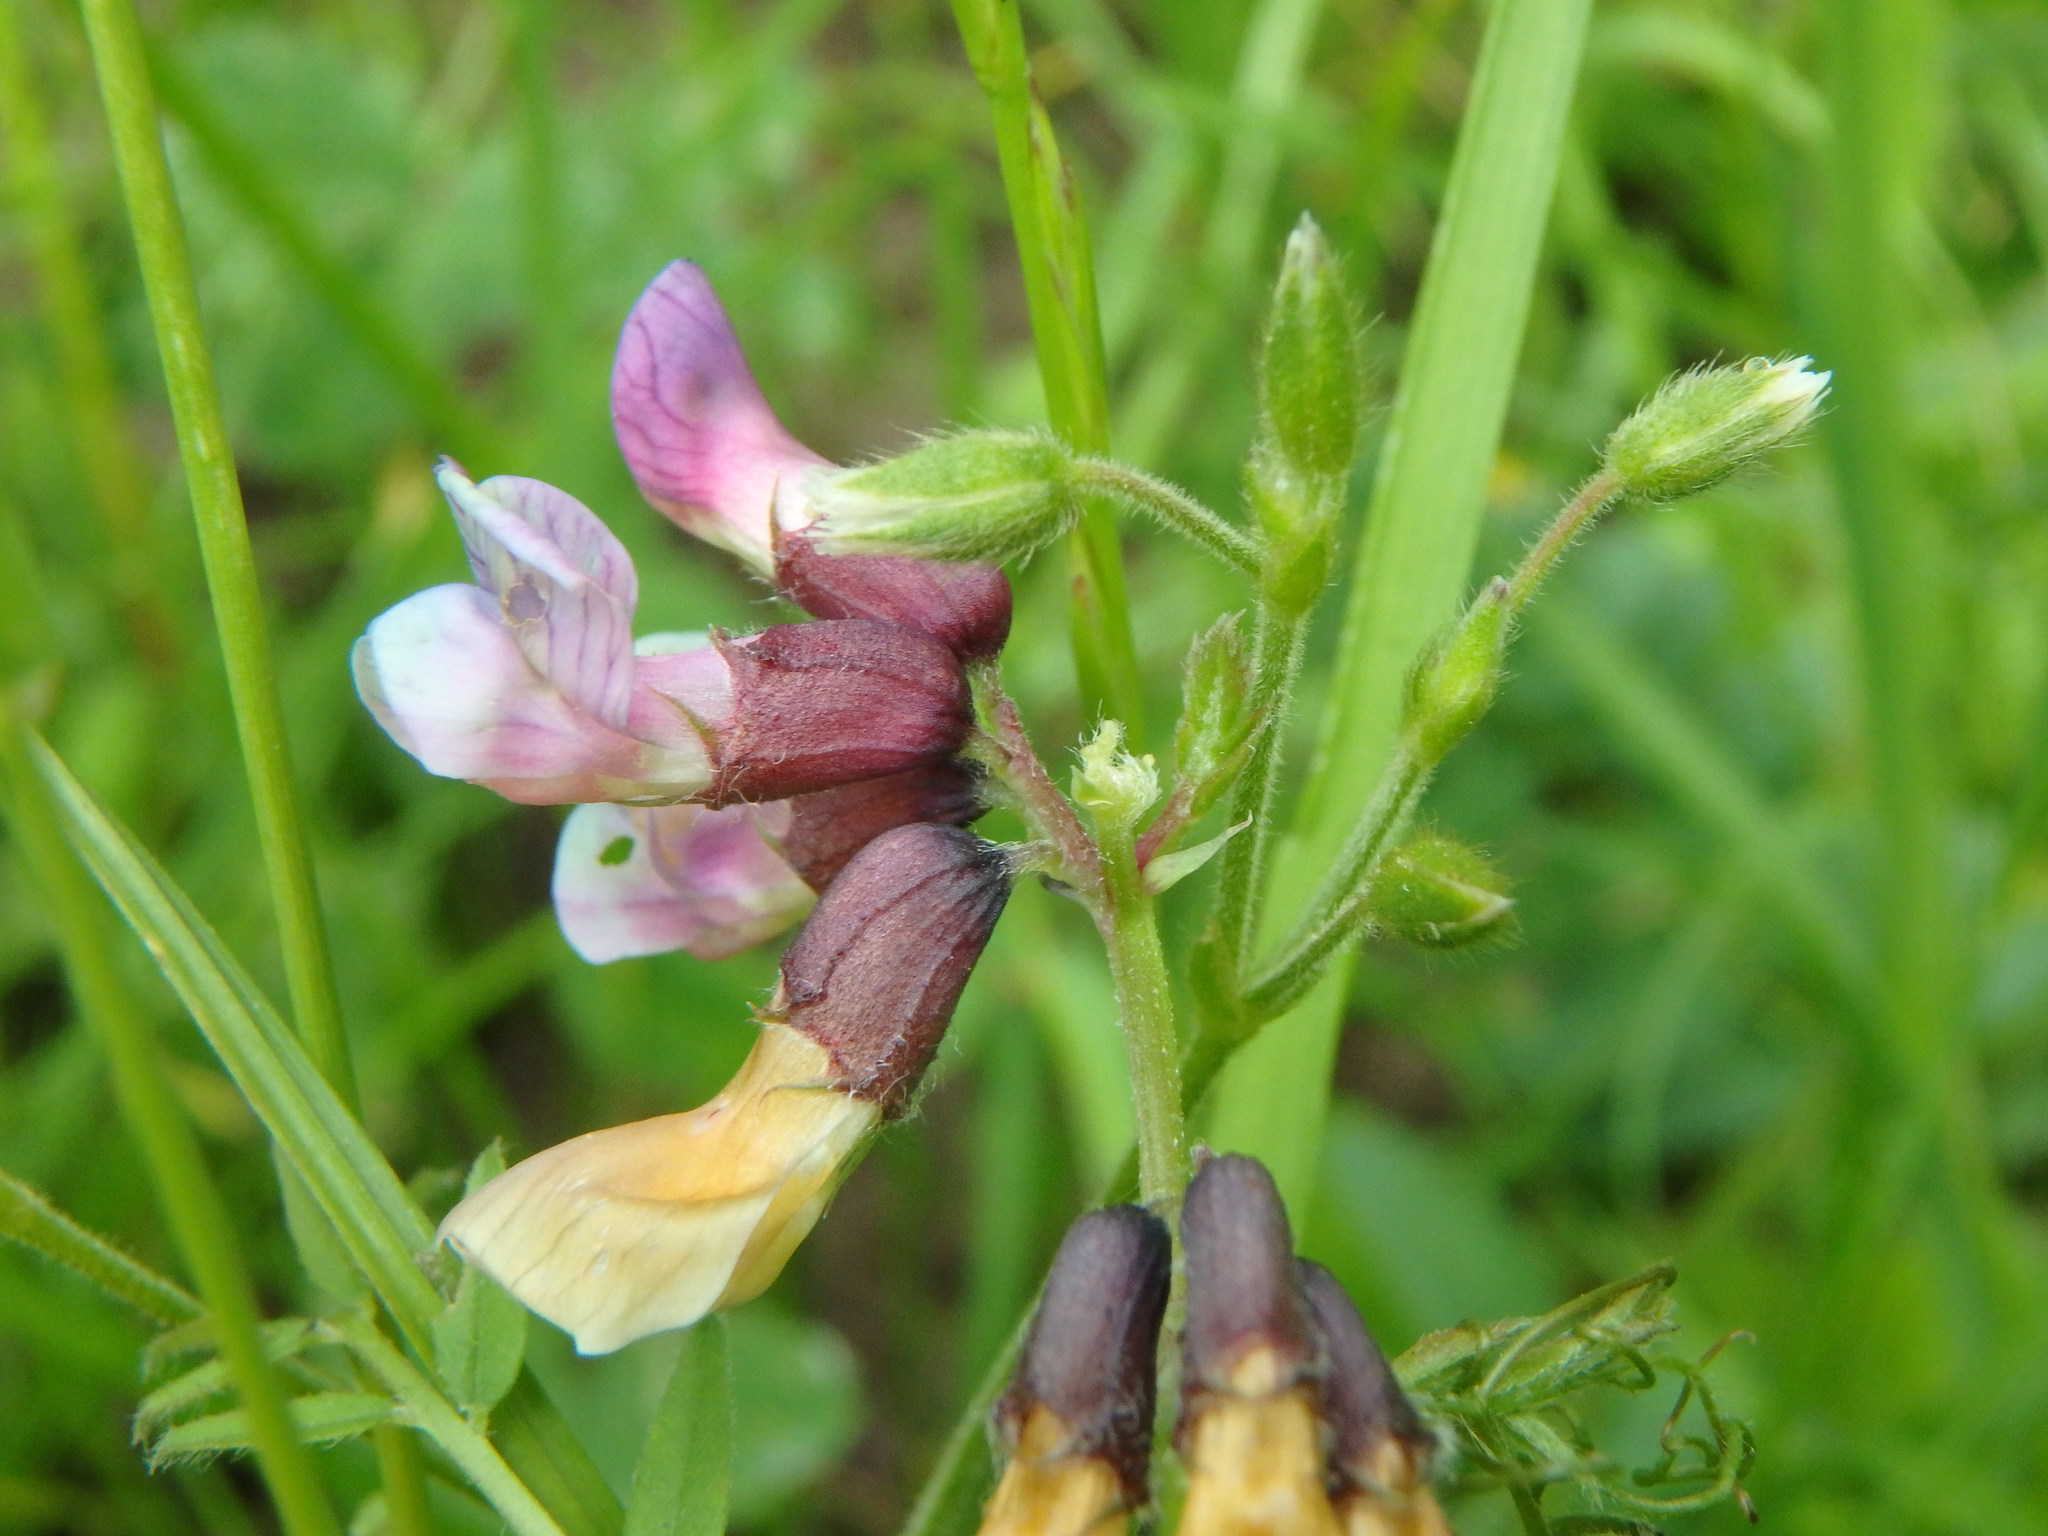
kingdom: Plantae
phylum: Tracheophyta
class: Magnoliopsida
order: Fabales
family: Fabaceae
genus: Vicia
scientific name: Vicia sepium
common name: Bush vetch
